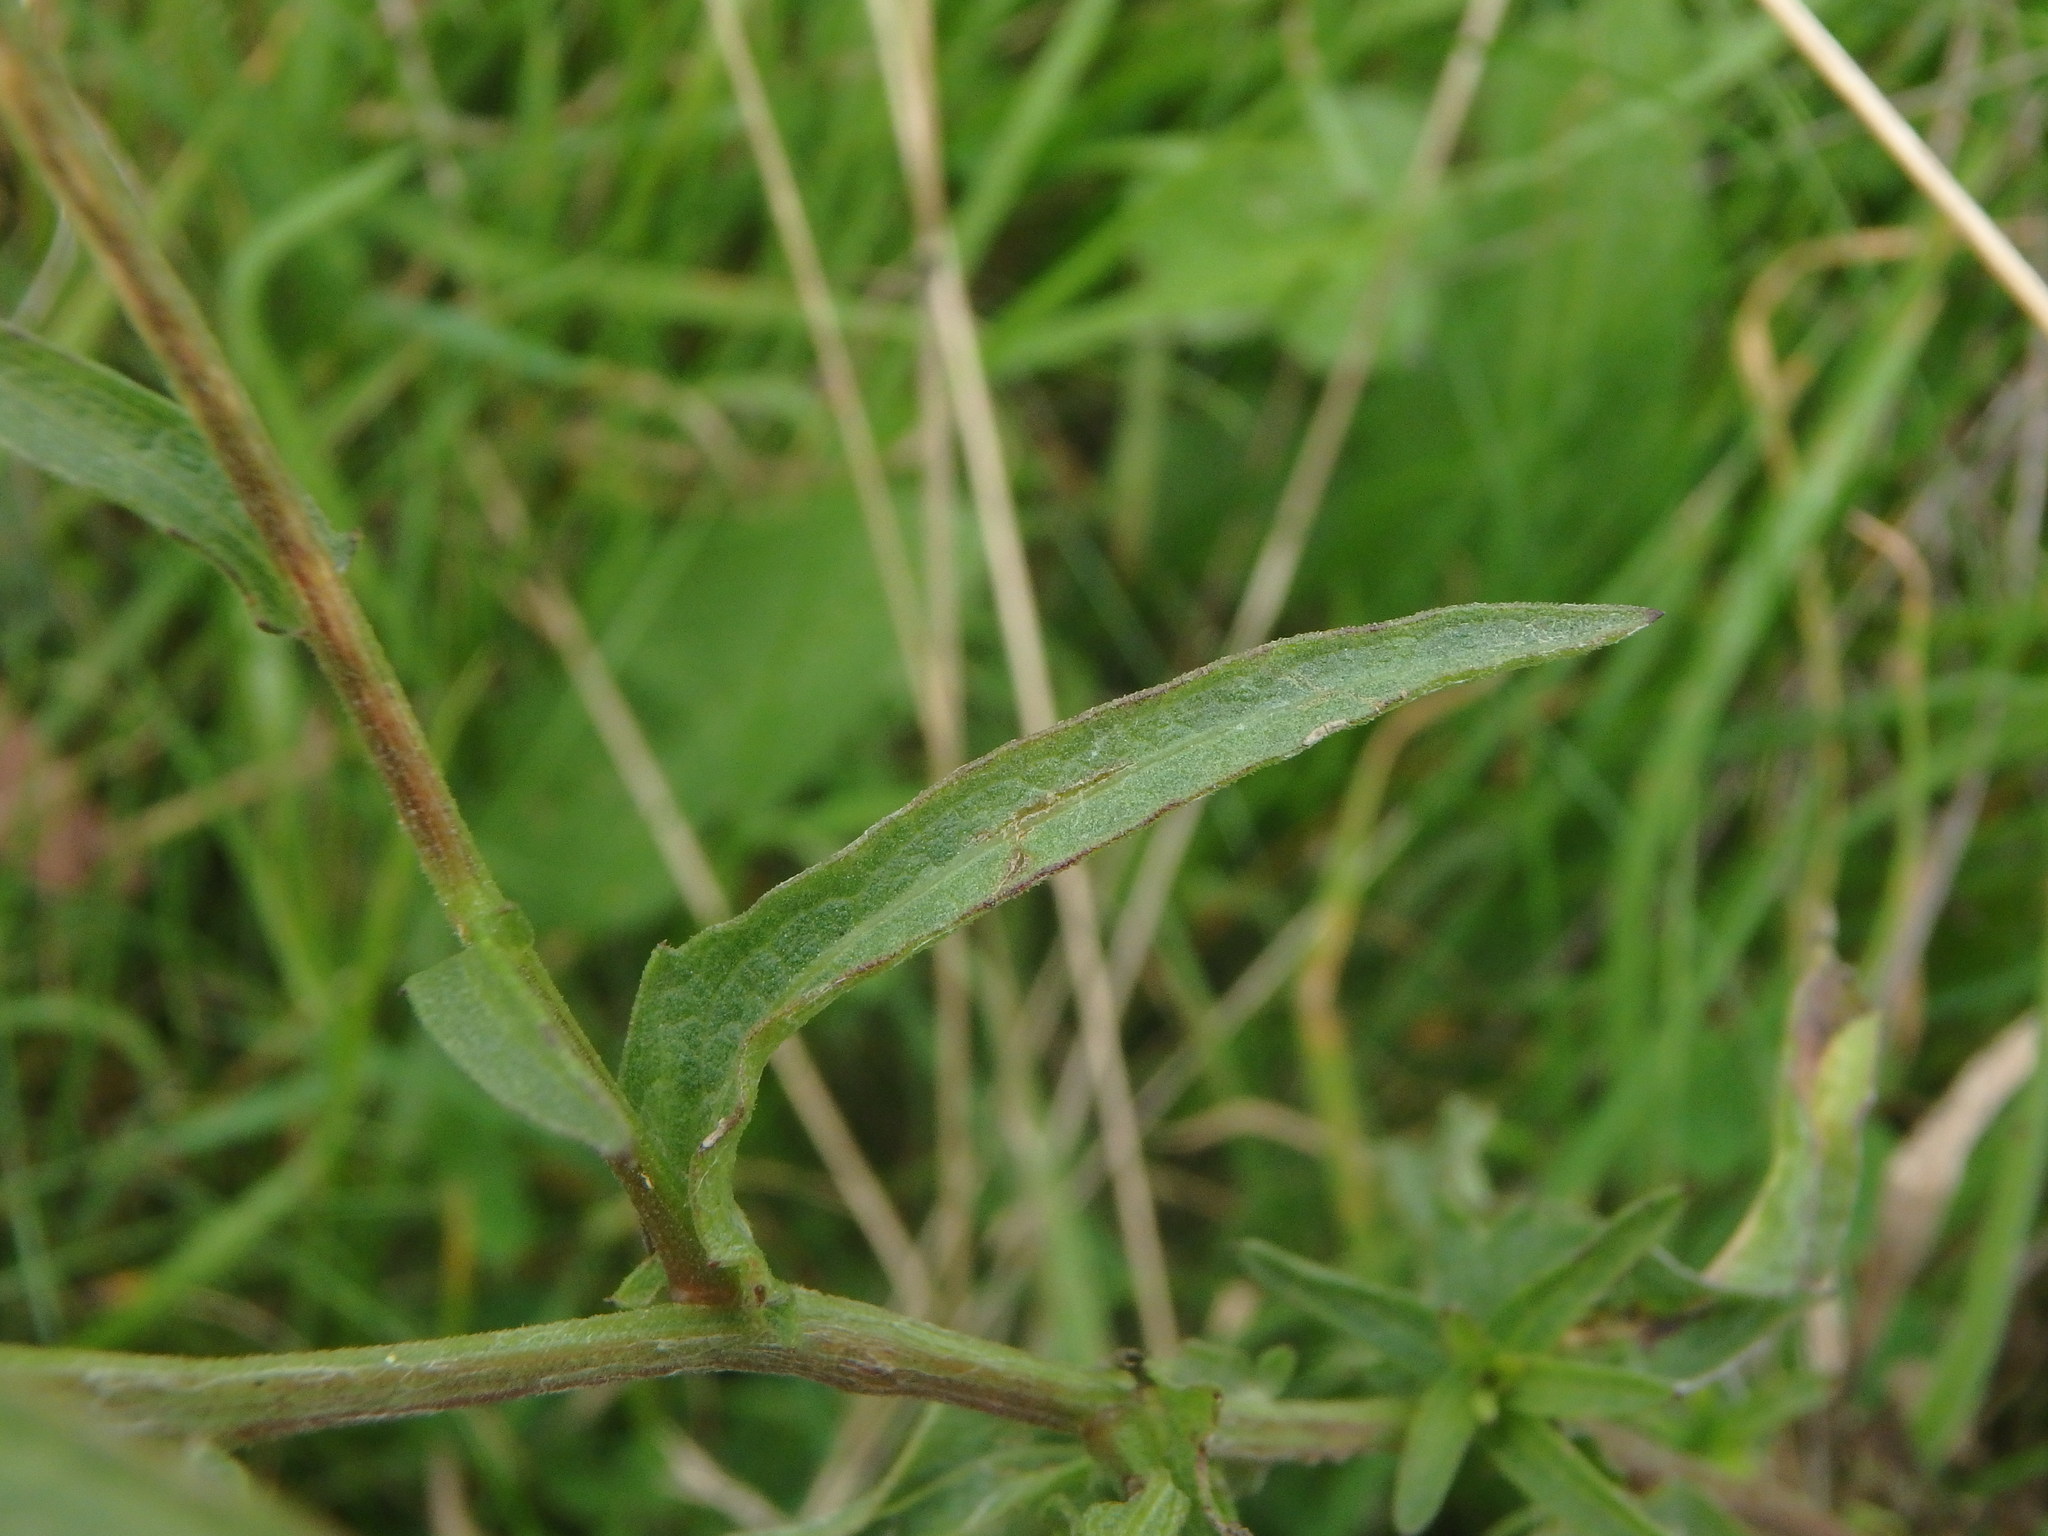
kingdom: Plantae
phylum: Tracheophyta
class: Magnoliopsida
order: Asterales
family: Asteraceae
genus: Centaurea
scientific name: Centaurea nigra
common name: Lesser knapweed
